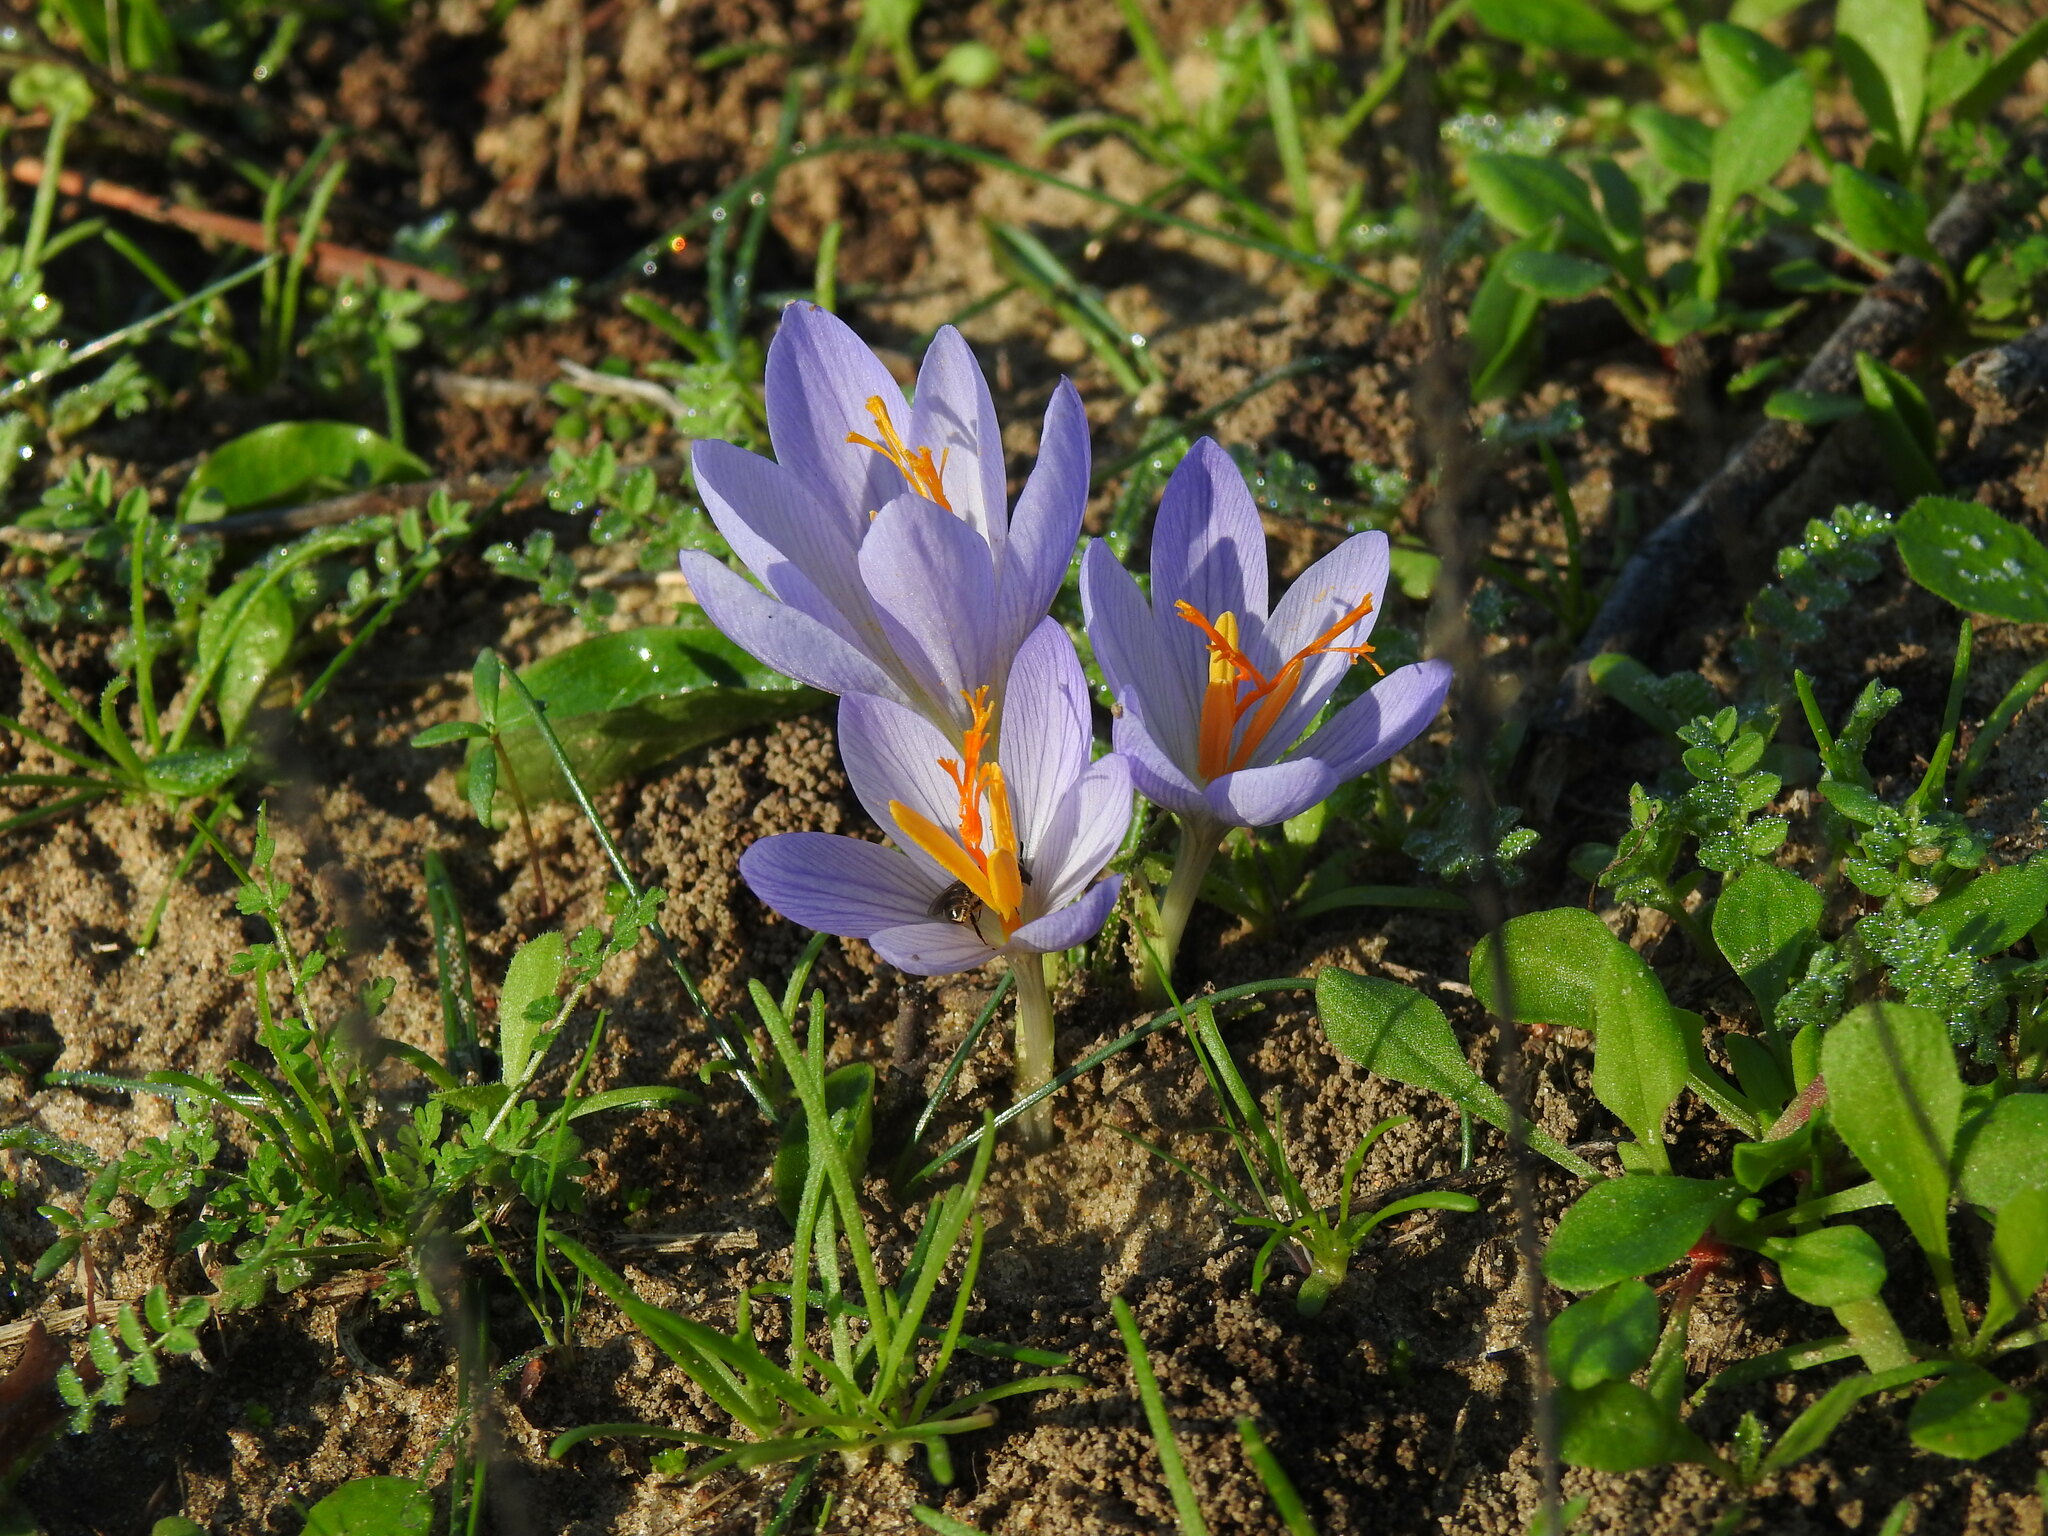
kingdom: Plantae
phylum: Tracheophyta
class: Liliopsida
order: Asparagales
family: Iridaceae
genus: Crocus
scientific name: Crocus serotinus
